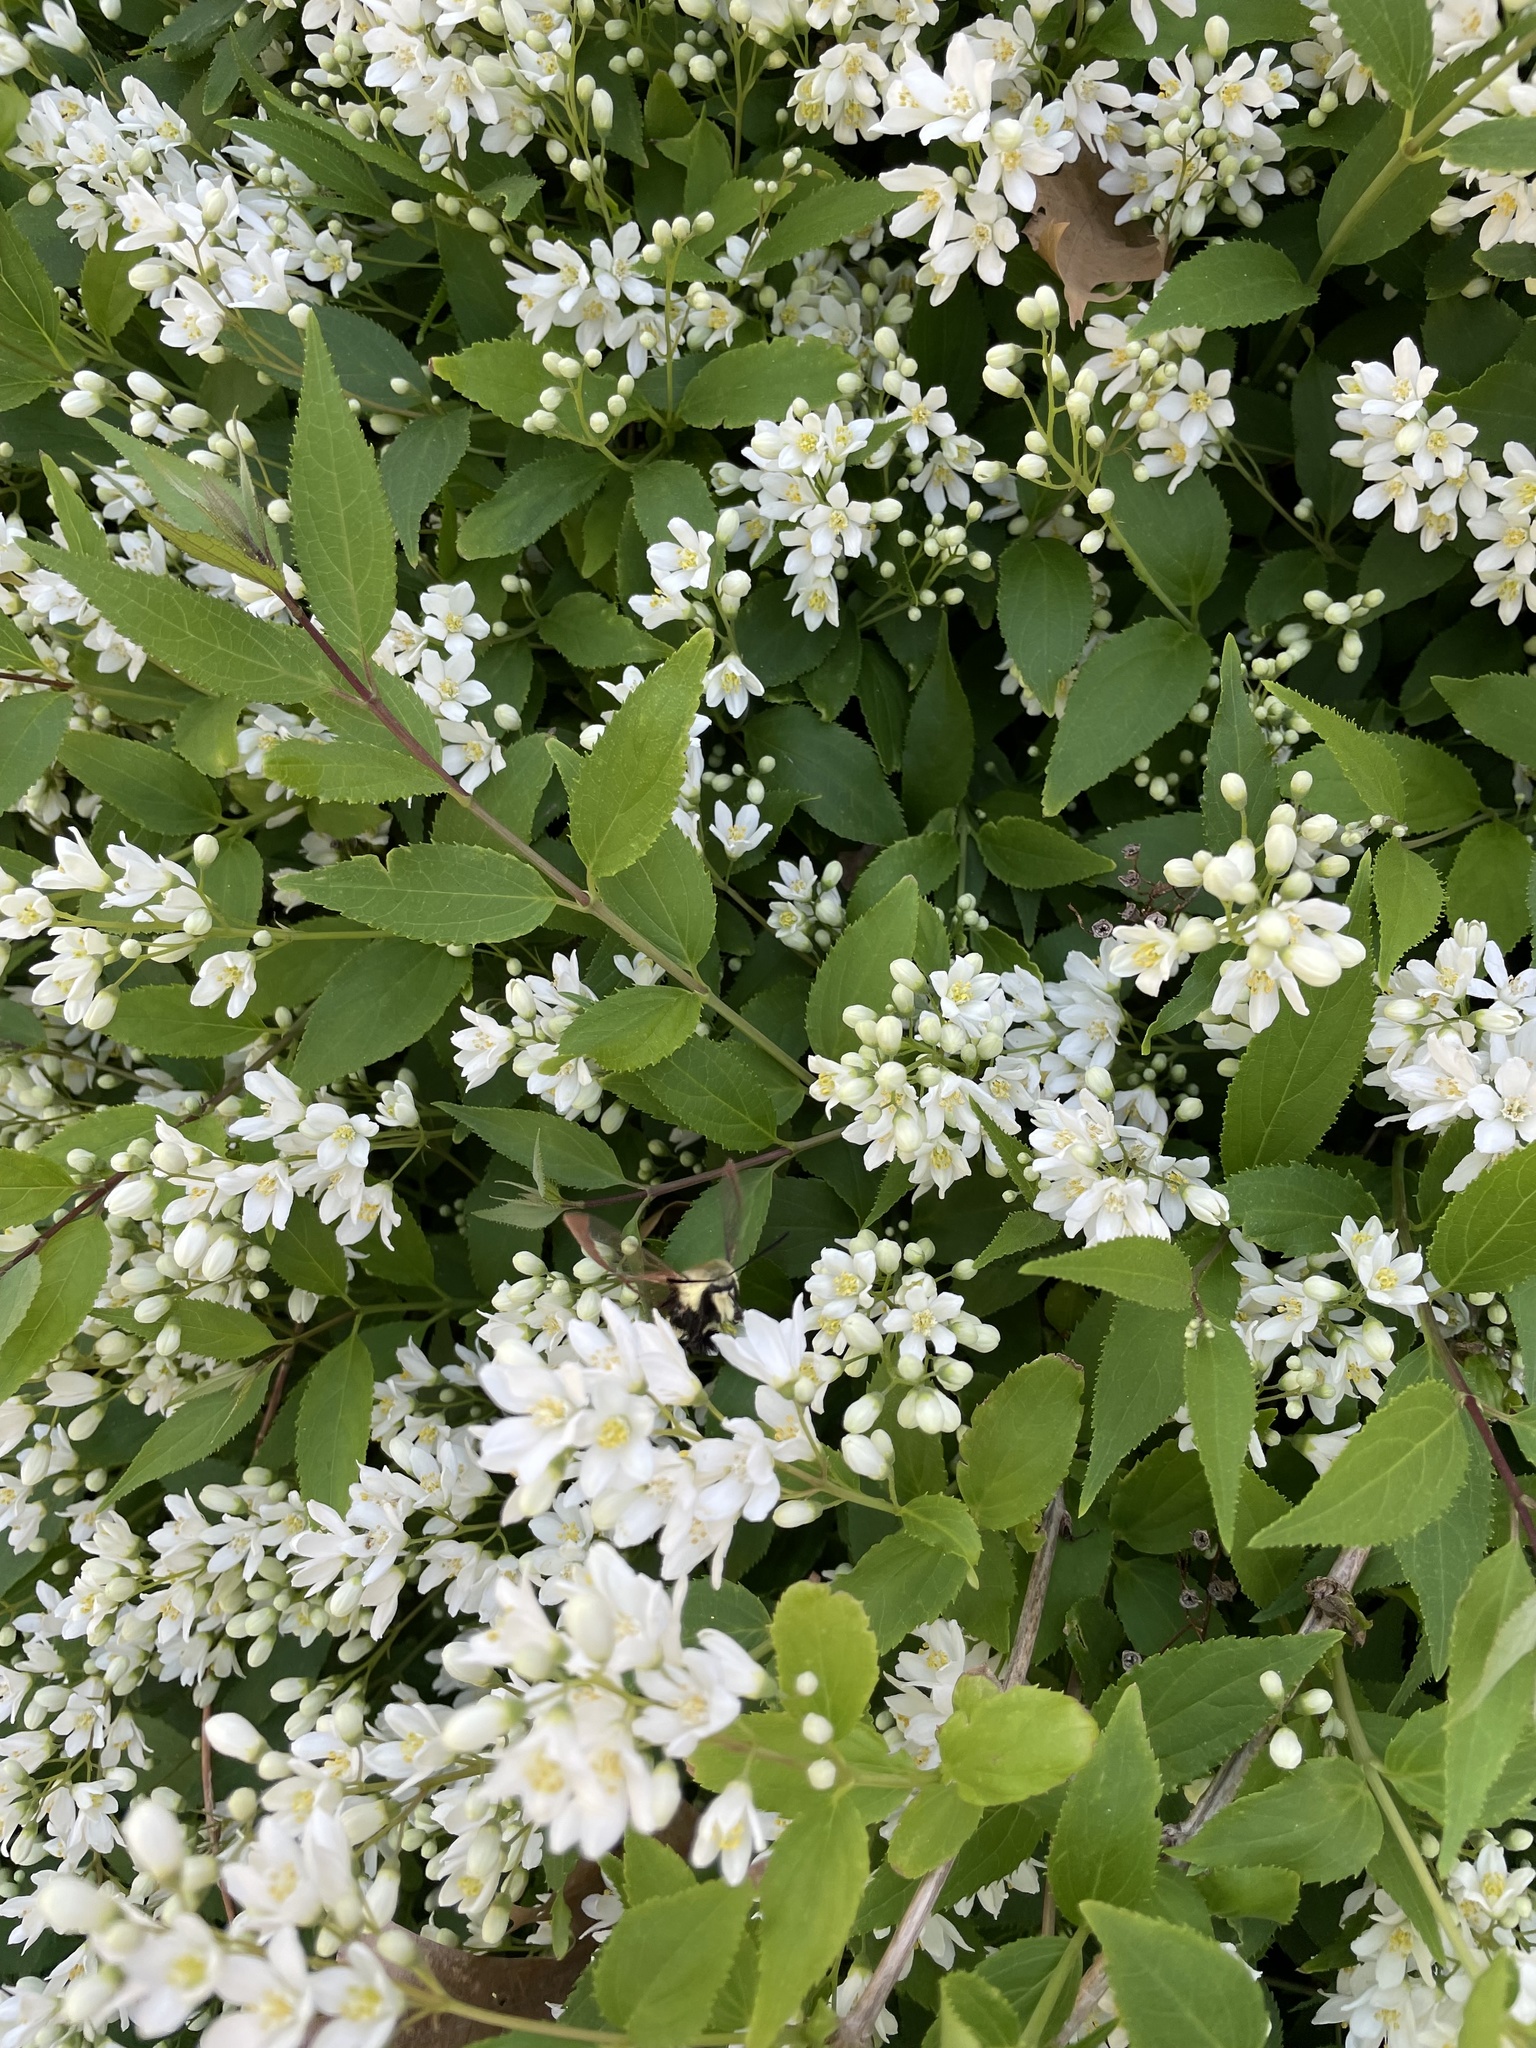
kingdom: Animalia
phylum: Arthropoda
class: Insecta
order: Lepidoptera
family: Sphingidae
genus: Hemaris
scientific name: Hemaris diffinis
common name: Bumblebee moth
